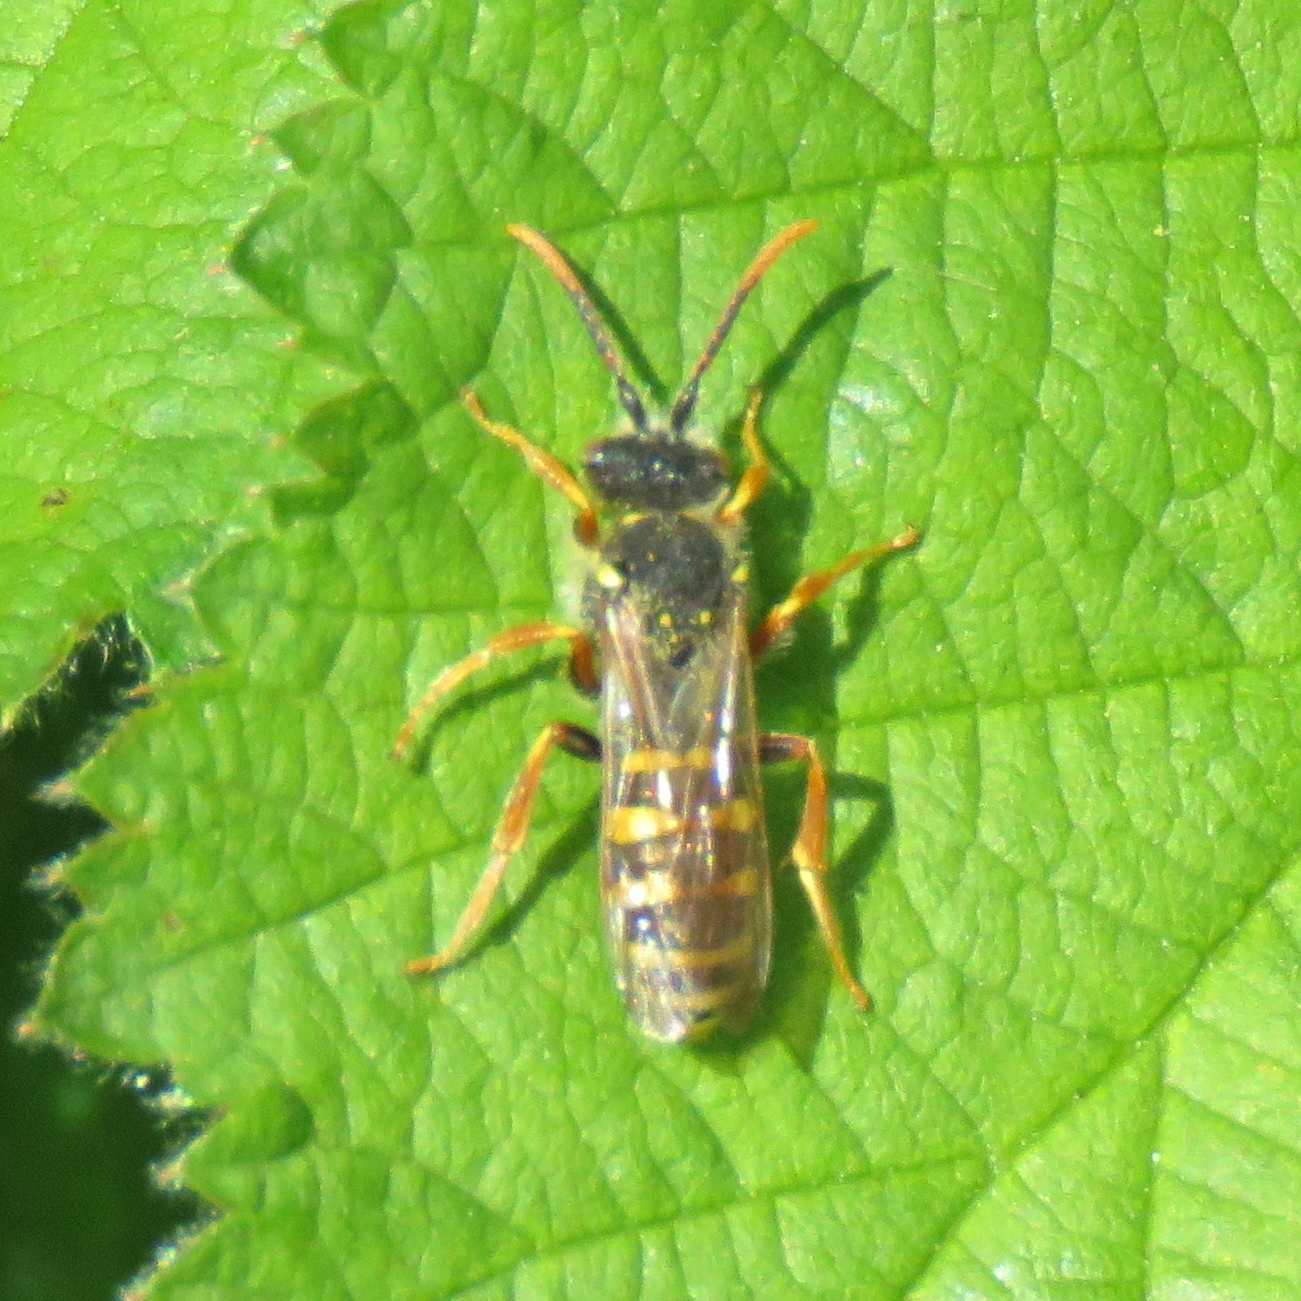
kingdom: Animalia
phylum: Arthropoda
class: Insecta
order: Hymenoptera
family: Apidae
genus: Nomada
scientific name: Nomada goodeniana
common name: Gooden's nomad bee
